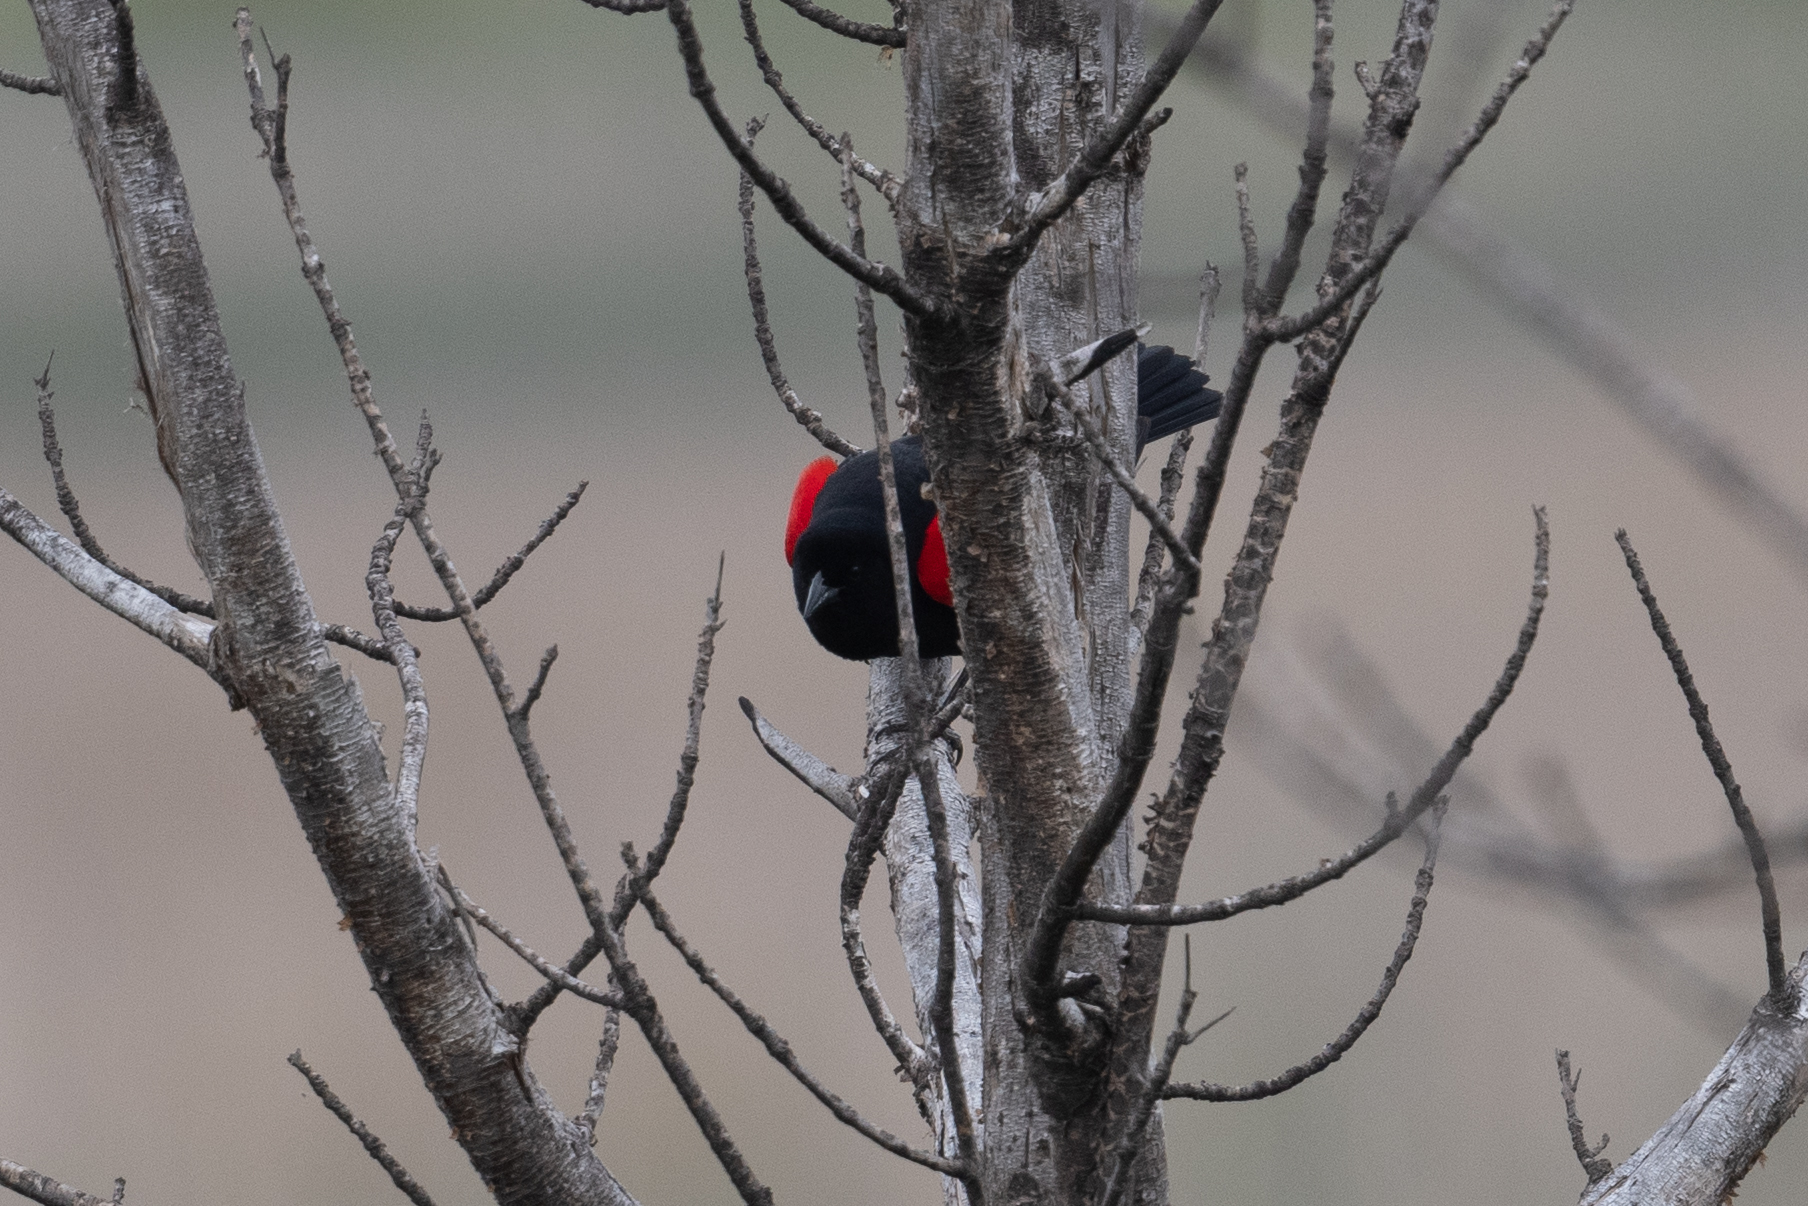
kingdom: Animalia
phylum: Chordata
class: Aves
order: Passeriformes
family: Icteridae
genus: Agelaius
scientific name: Agelaius phoeniceus
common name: Red-winged blackbird
